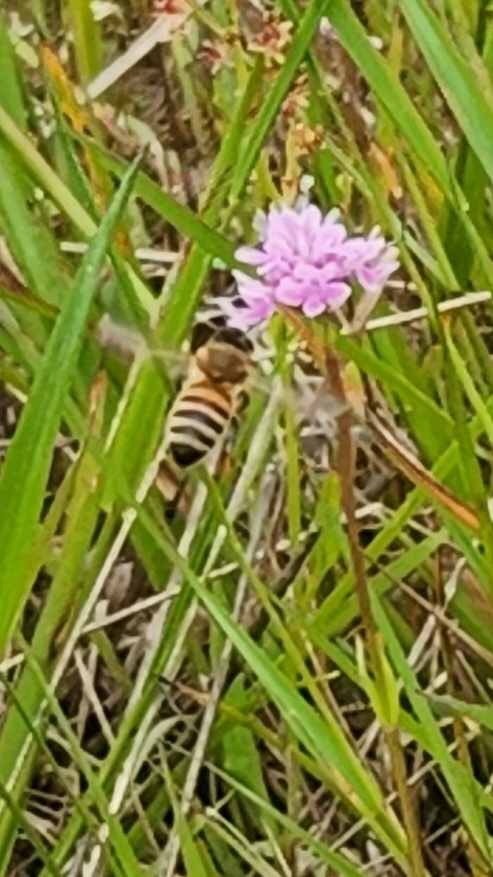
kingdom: Animalia
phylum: Arthropoda
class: Insecta
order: Hymenoptera
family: Apidae
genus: Apis
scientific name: Apis mellifera
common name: Honey bee
